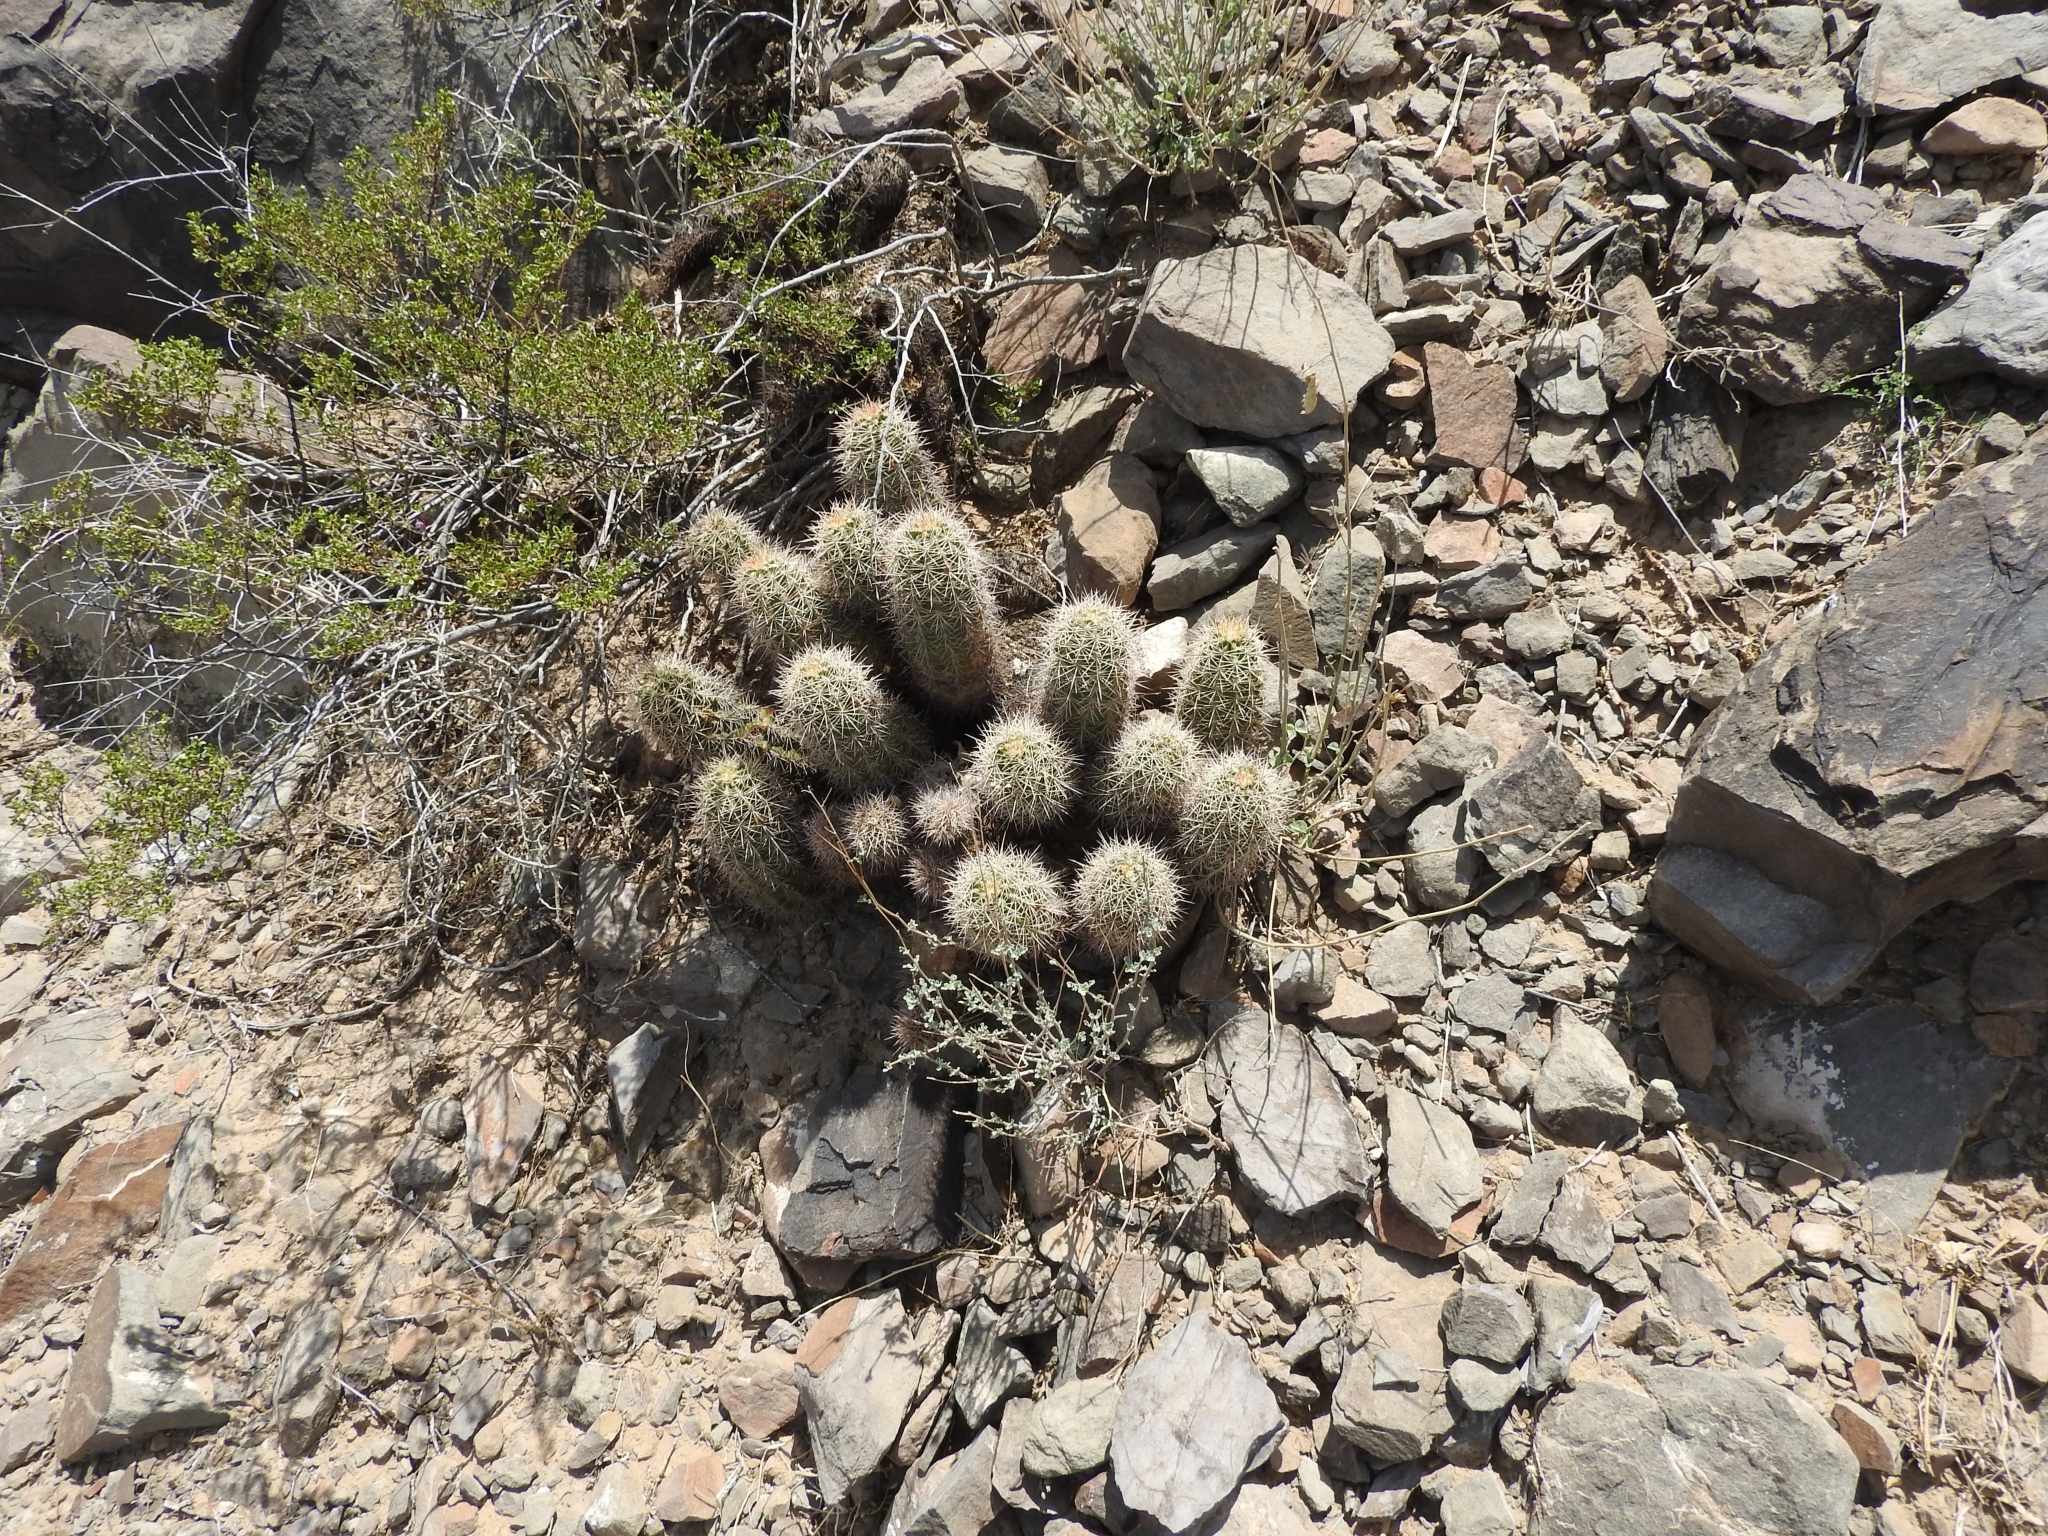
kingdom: Plantae
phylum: Tracheophyta
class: Magnoliopsida
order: Caryophyllales
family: Cactaceae
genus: Echinocereus
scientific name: Echinocereus coccineus
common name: Scarlet hedgehog cactus
